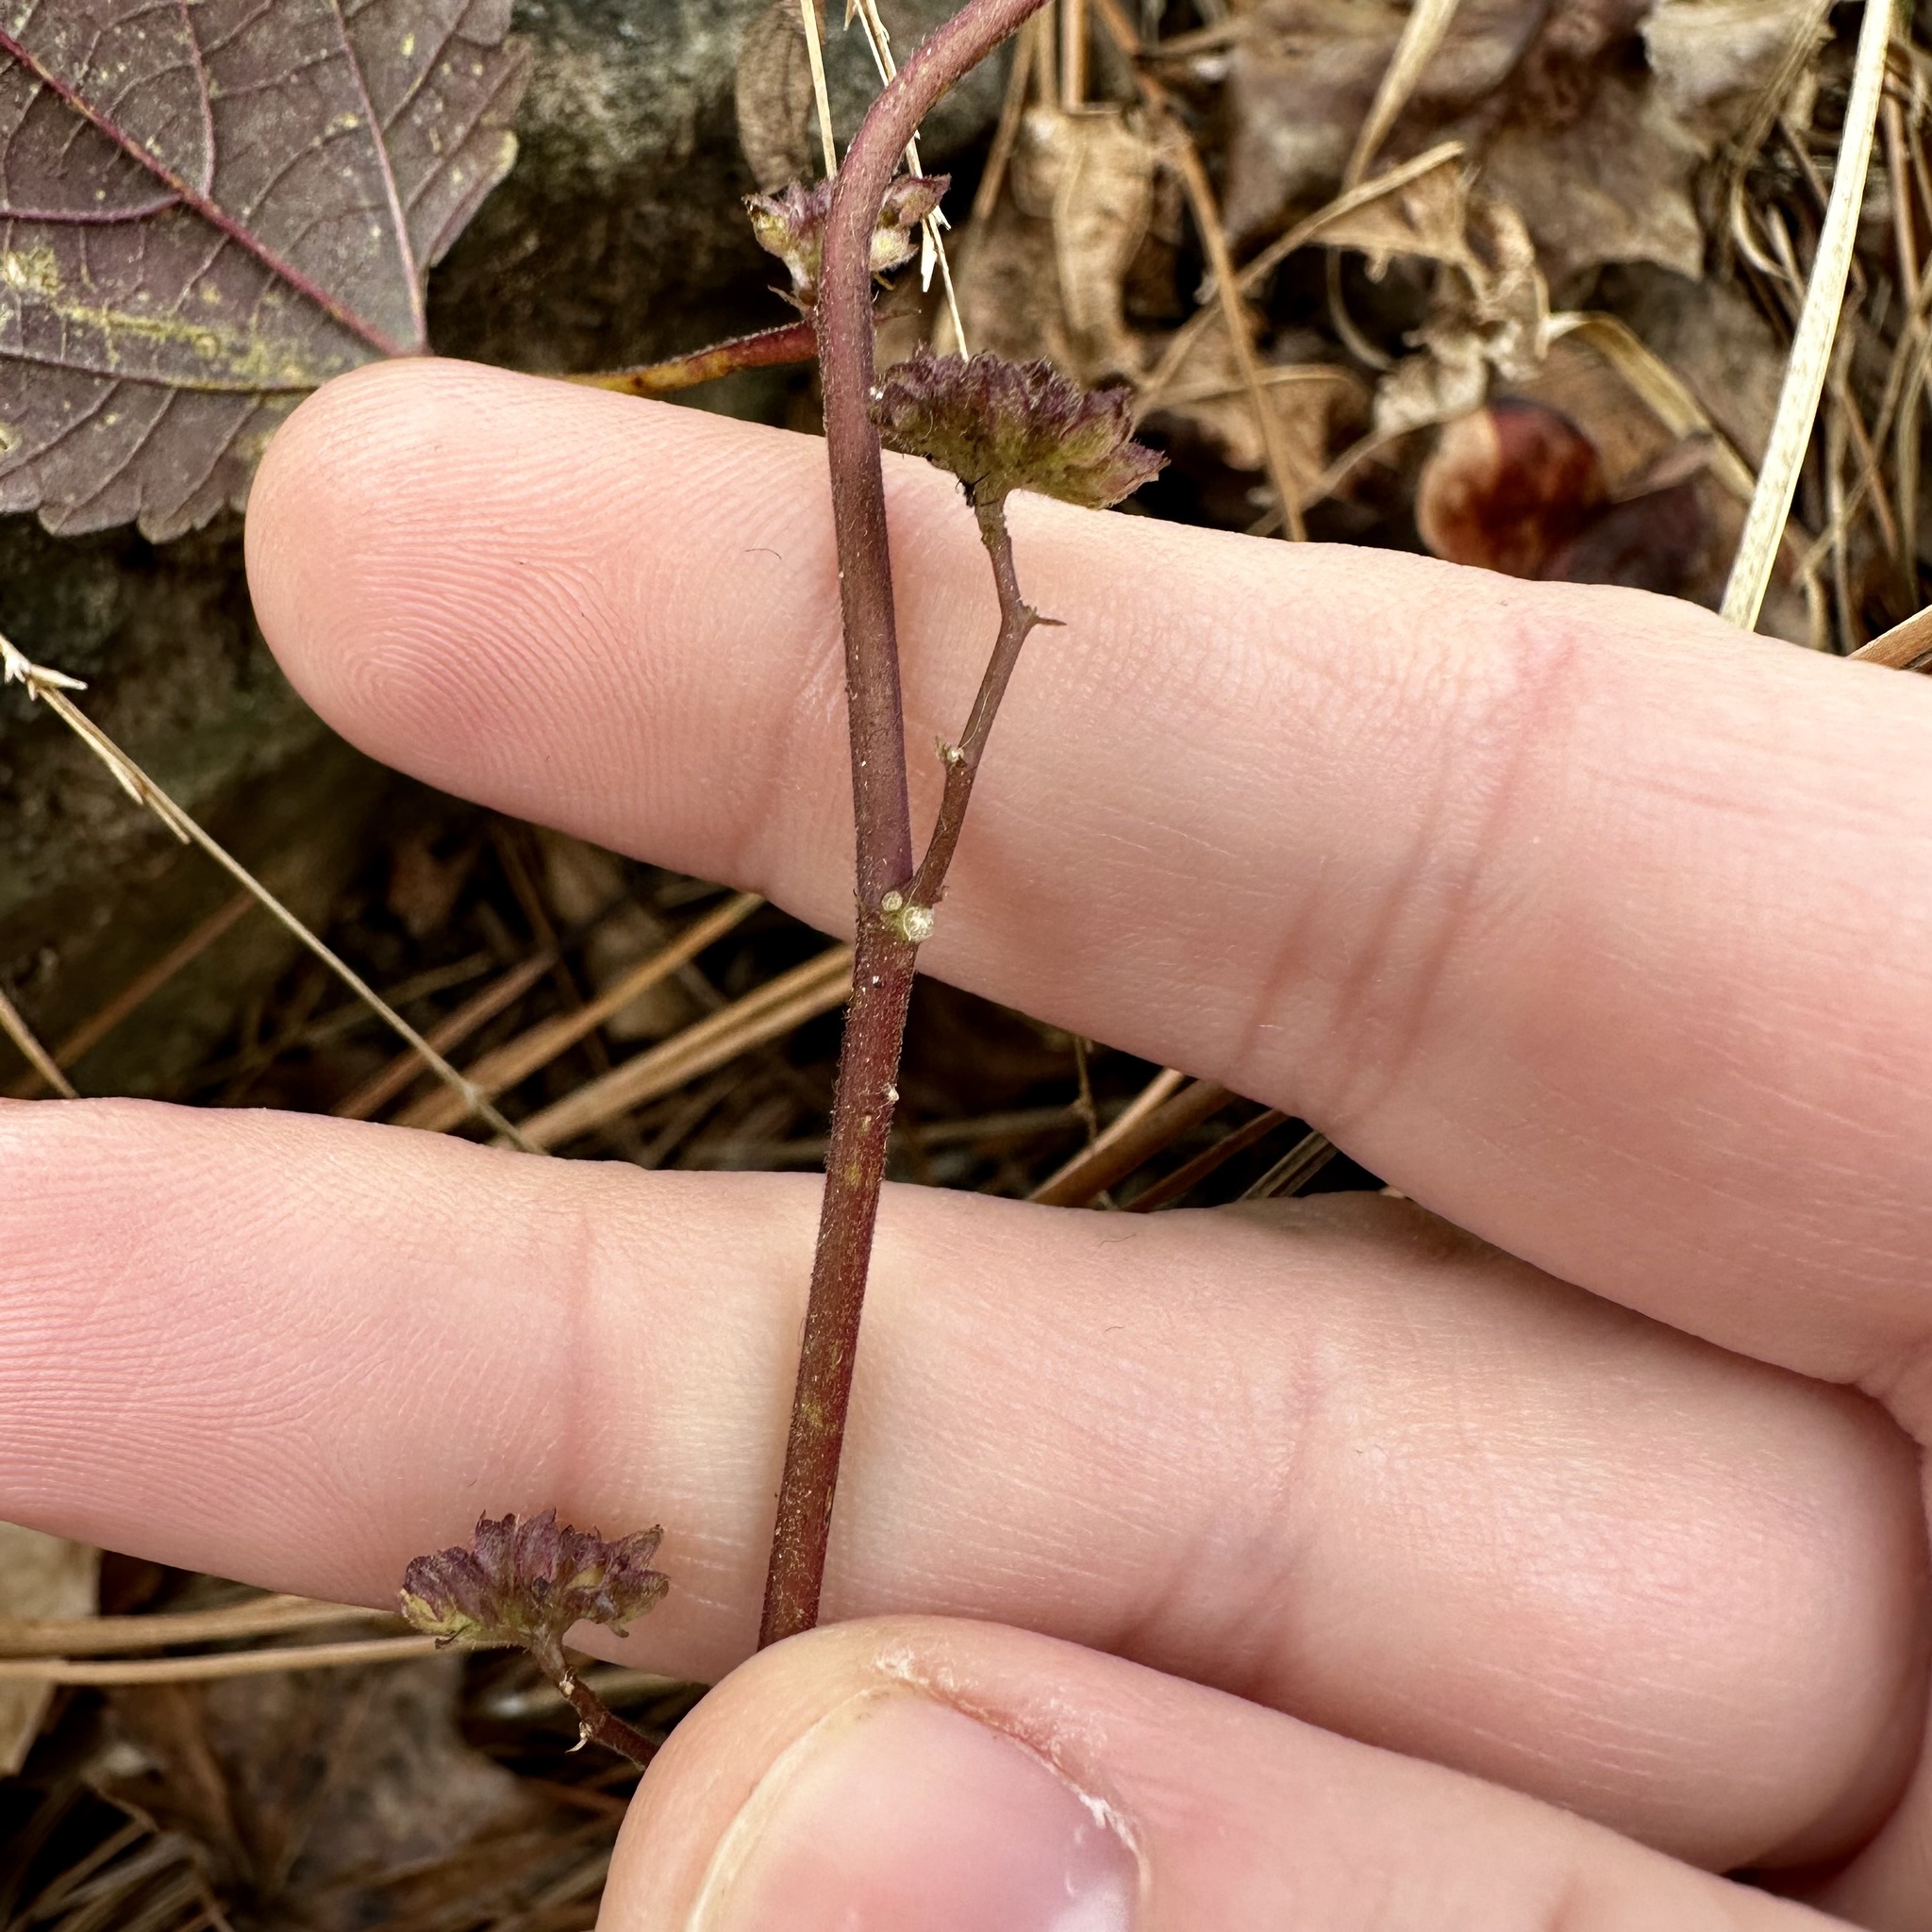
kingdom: Plantae
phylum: Tracheophyta
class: Magnoliopsida
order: Rosales
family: Moraceae
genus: Fatoua
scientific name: Fatoua villosa
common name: Hairy crabweed
